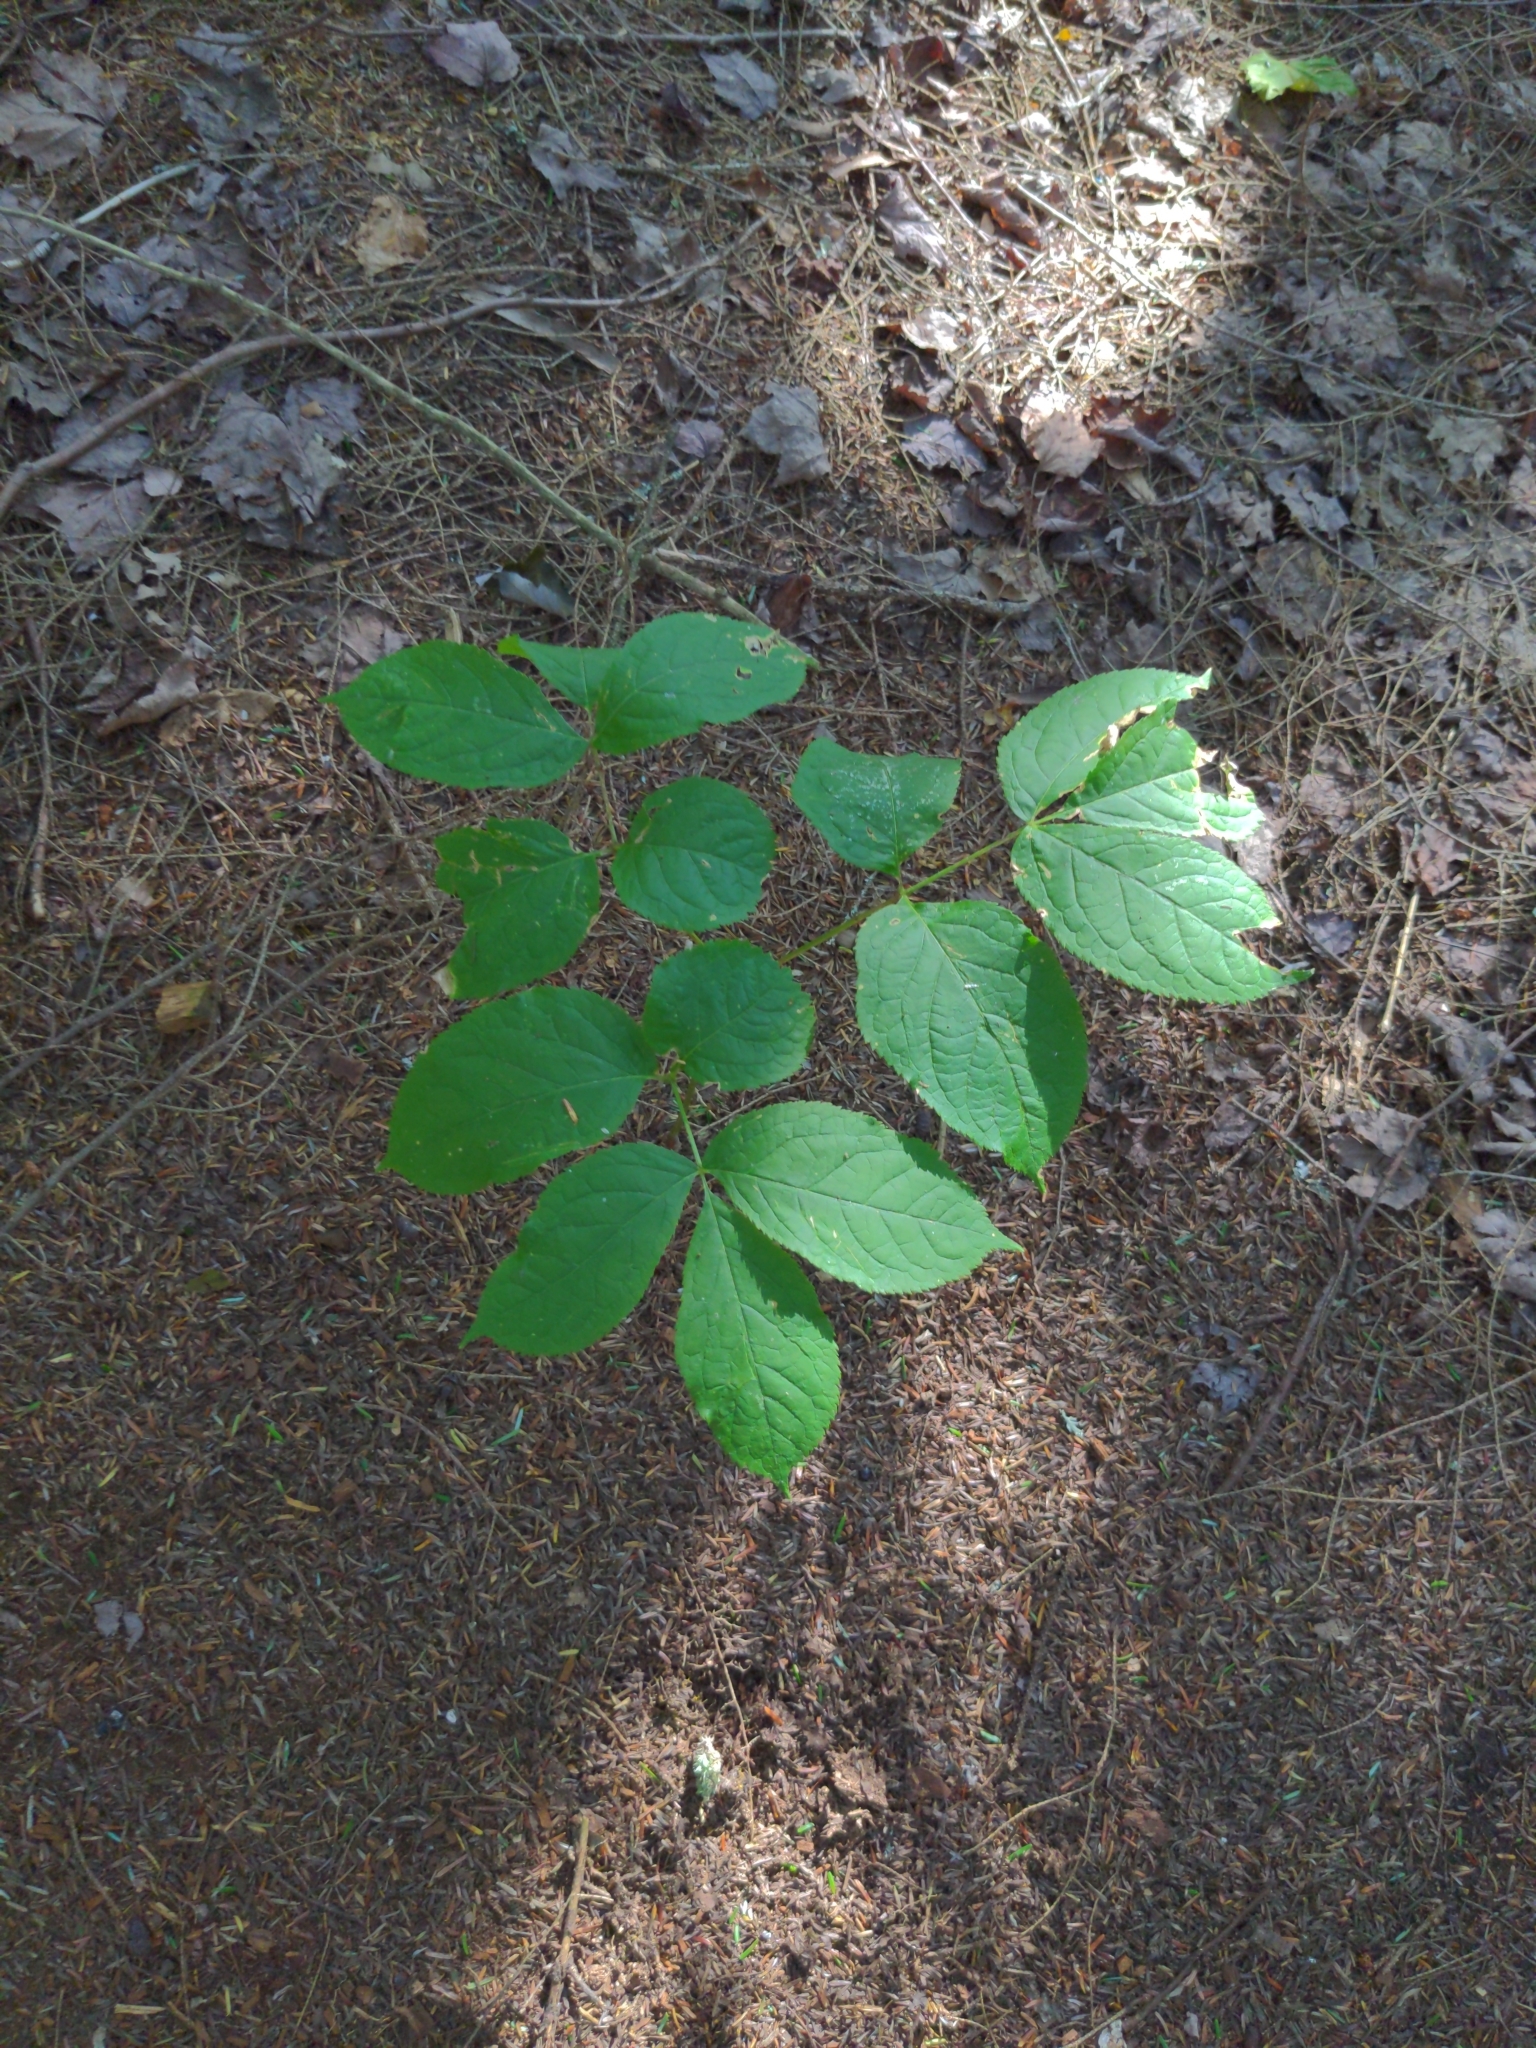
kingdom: Plantae
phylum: Tracheophyta
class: Magnoliopsida
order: Apiales
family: Araliaceae
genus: Aralia
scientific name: Aralia nudicaulis
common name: Wild sarsaparilla
